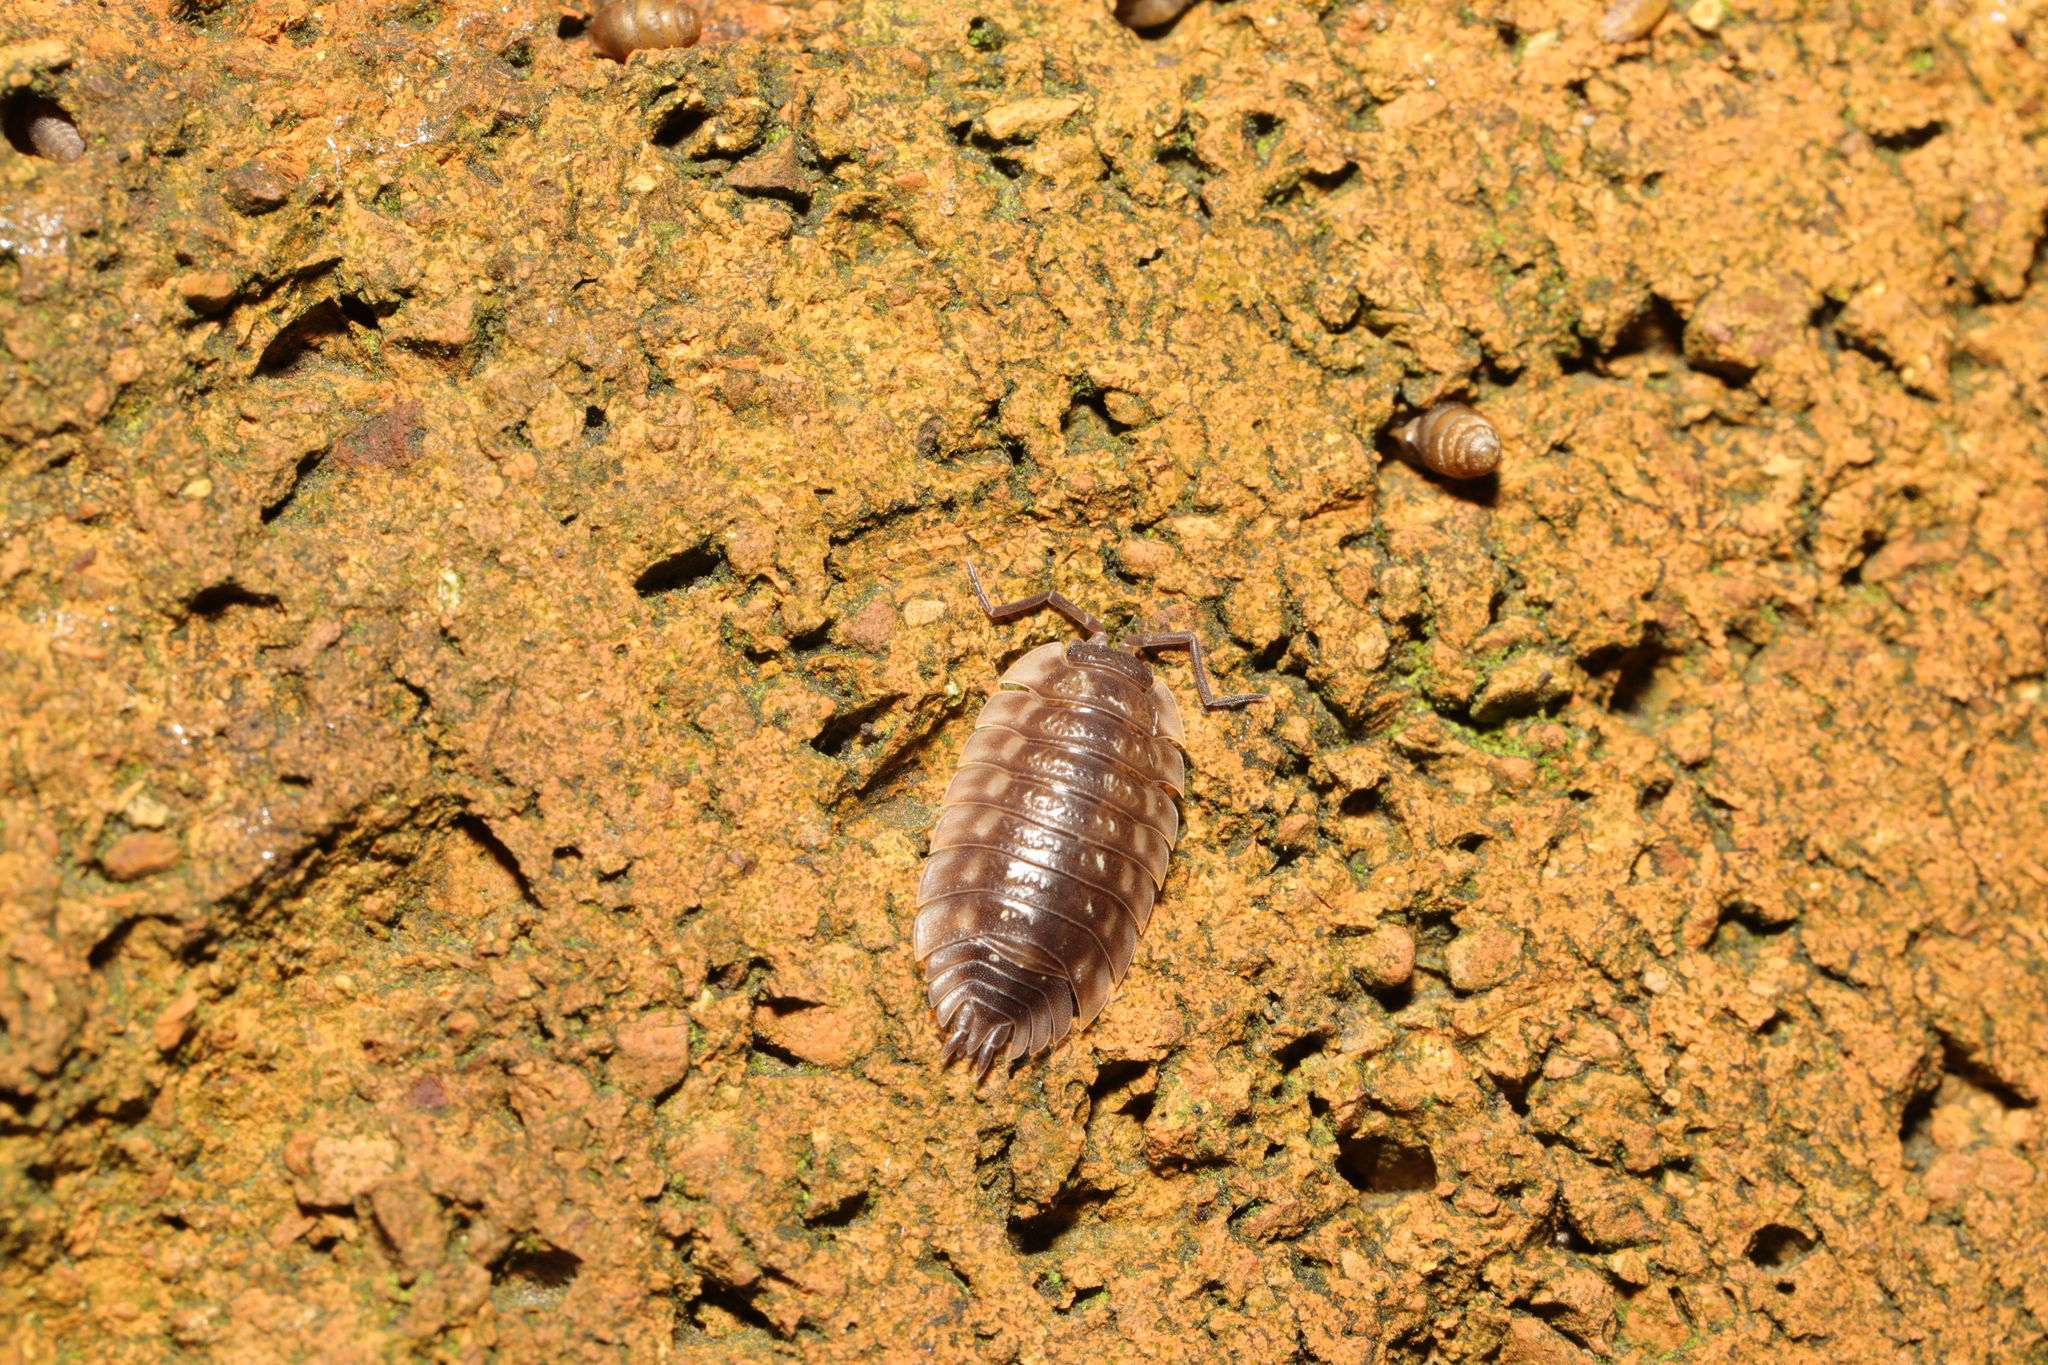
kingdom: Animalia
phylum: Arthropoda
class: Malacostraca
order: Isopoda
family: Oniscidae
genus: Oniscus
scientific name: Oniscus asellus
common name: Common shiny woodlouse
